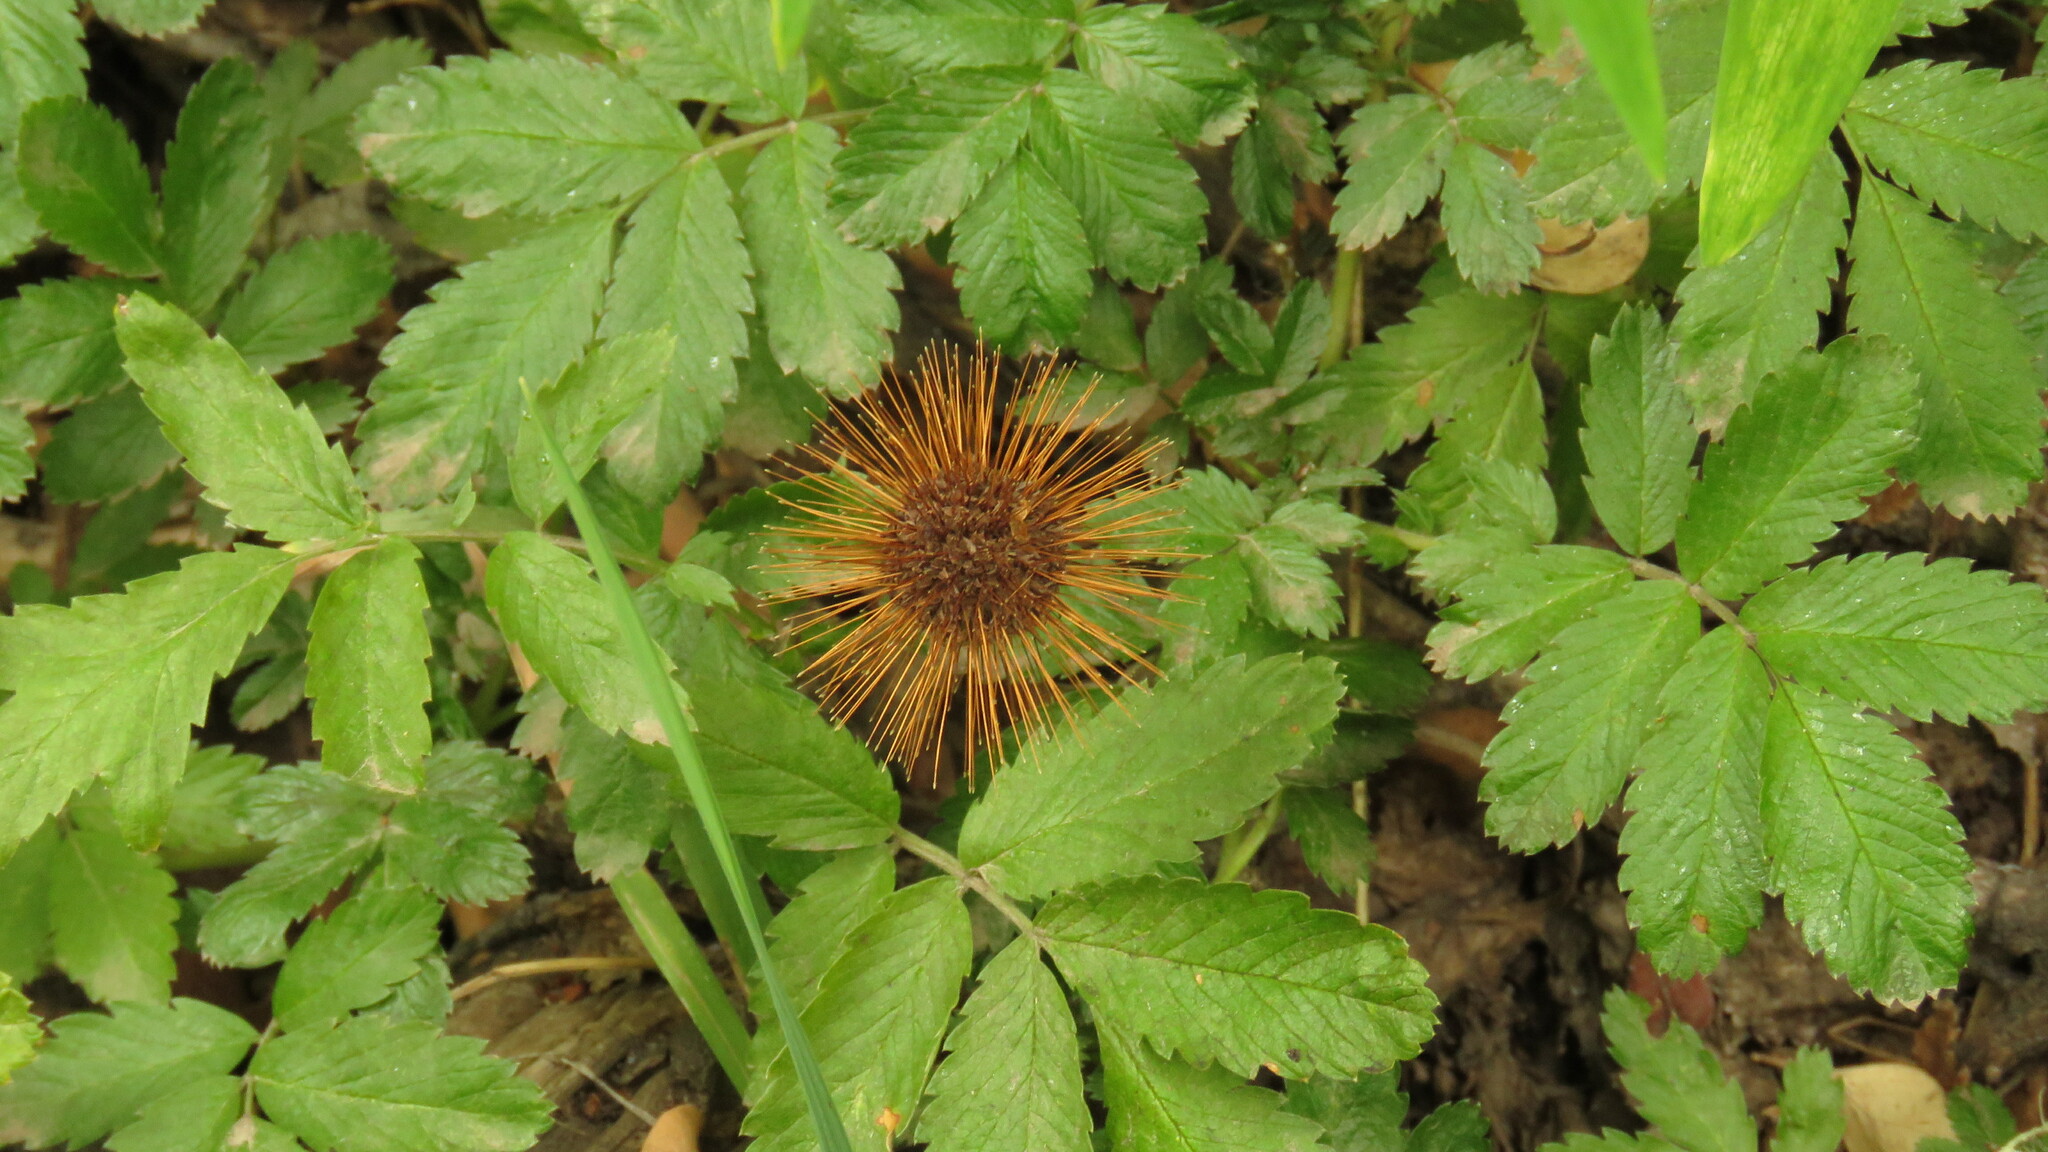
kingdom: Plantae
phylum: Tracheophyta
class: Magnoliopsida
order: Rosales
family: Rosaceae
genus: Acaena
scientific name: Acaena ovalifolia
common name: Two-spined acaena
